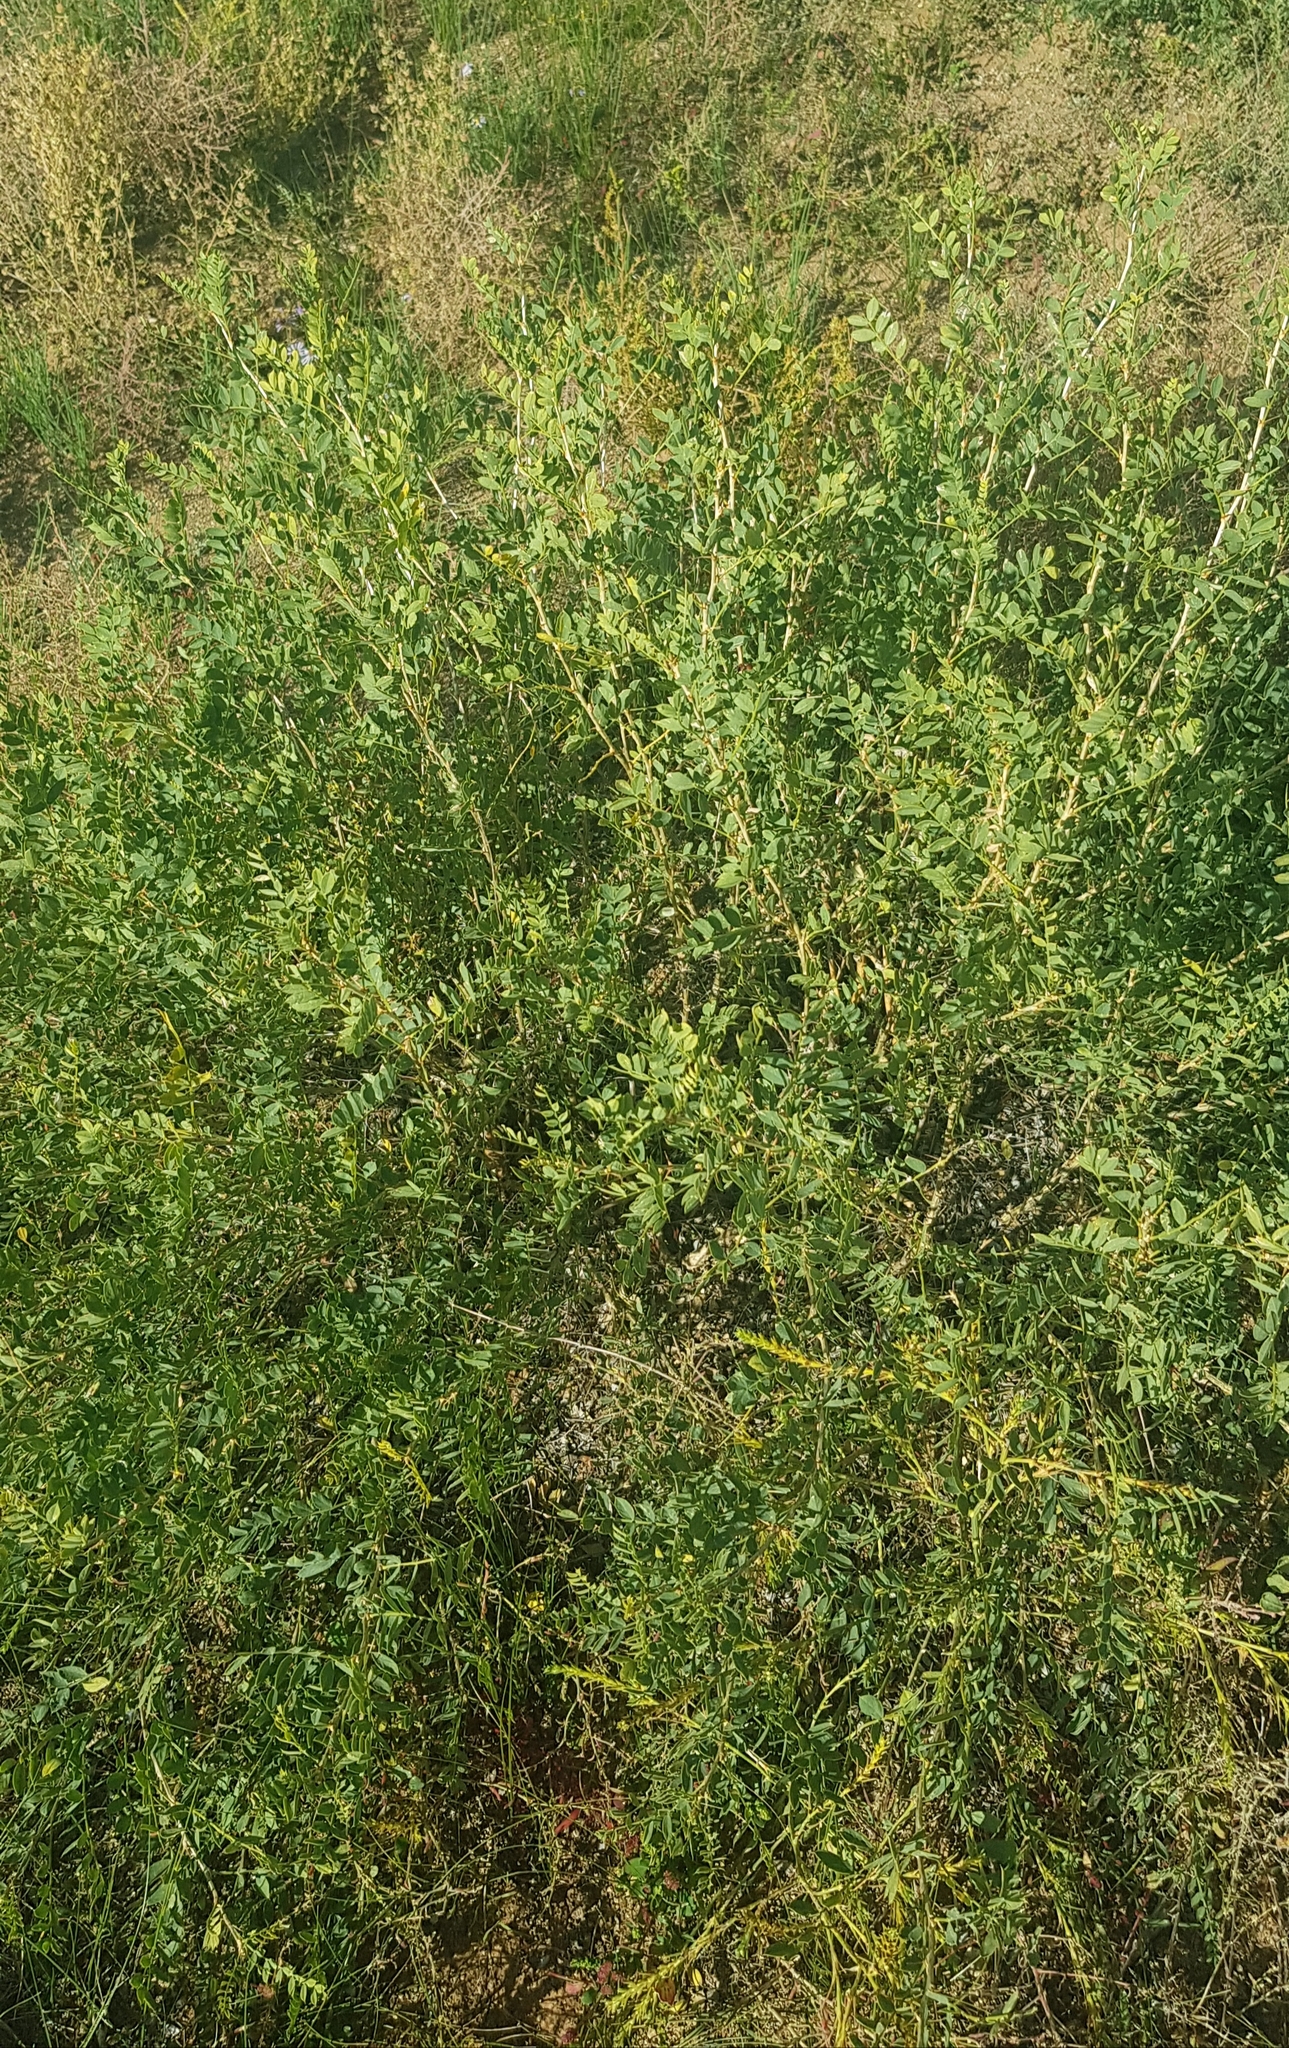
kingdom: Plantae
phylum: Tracheophyta
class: Magnoliopsida
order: Fabales
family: Fabaceae
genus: Caragana
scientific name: Caragana microphylla
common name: Littleleaf peashrub
